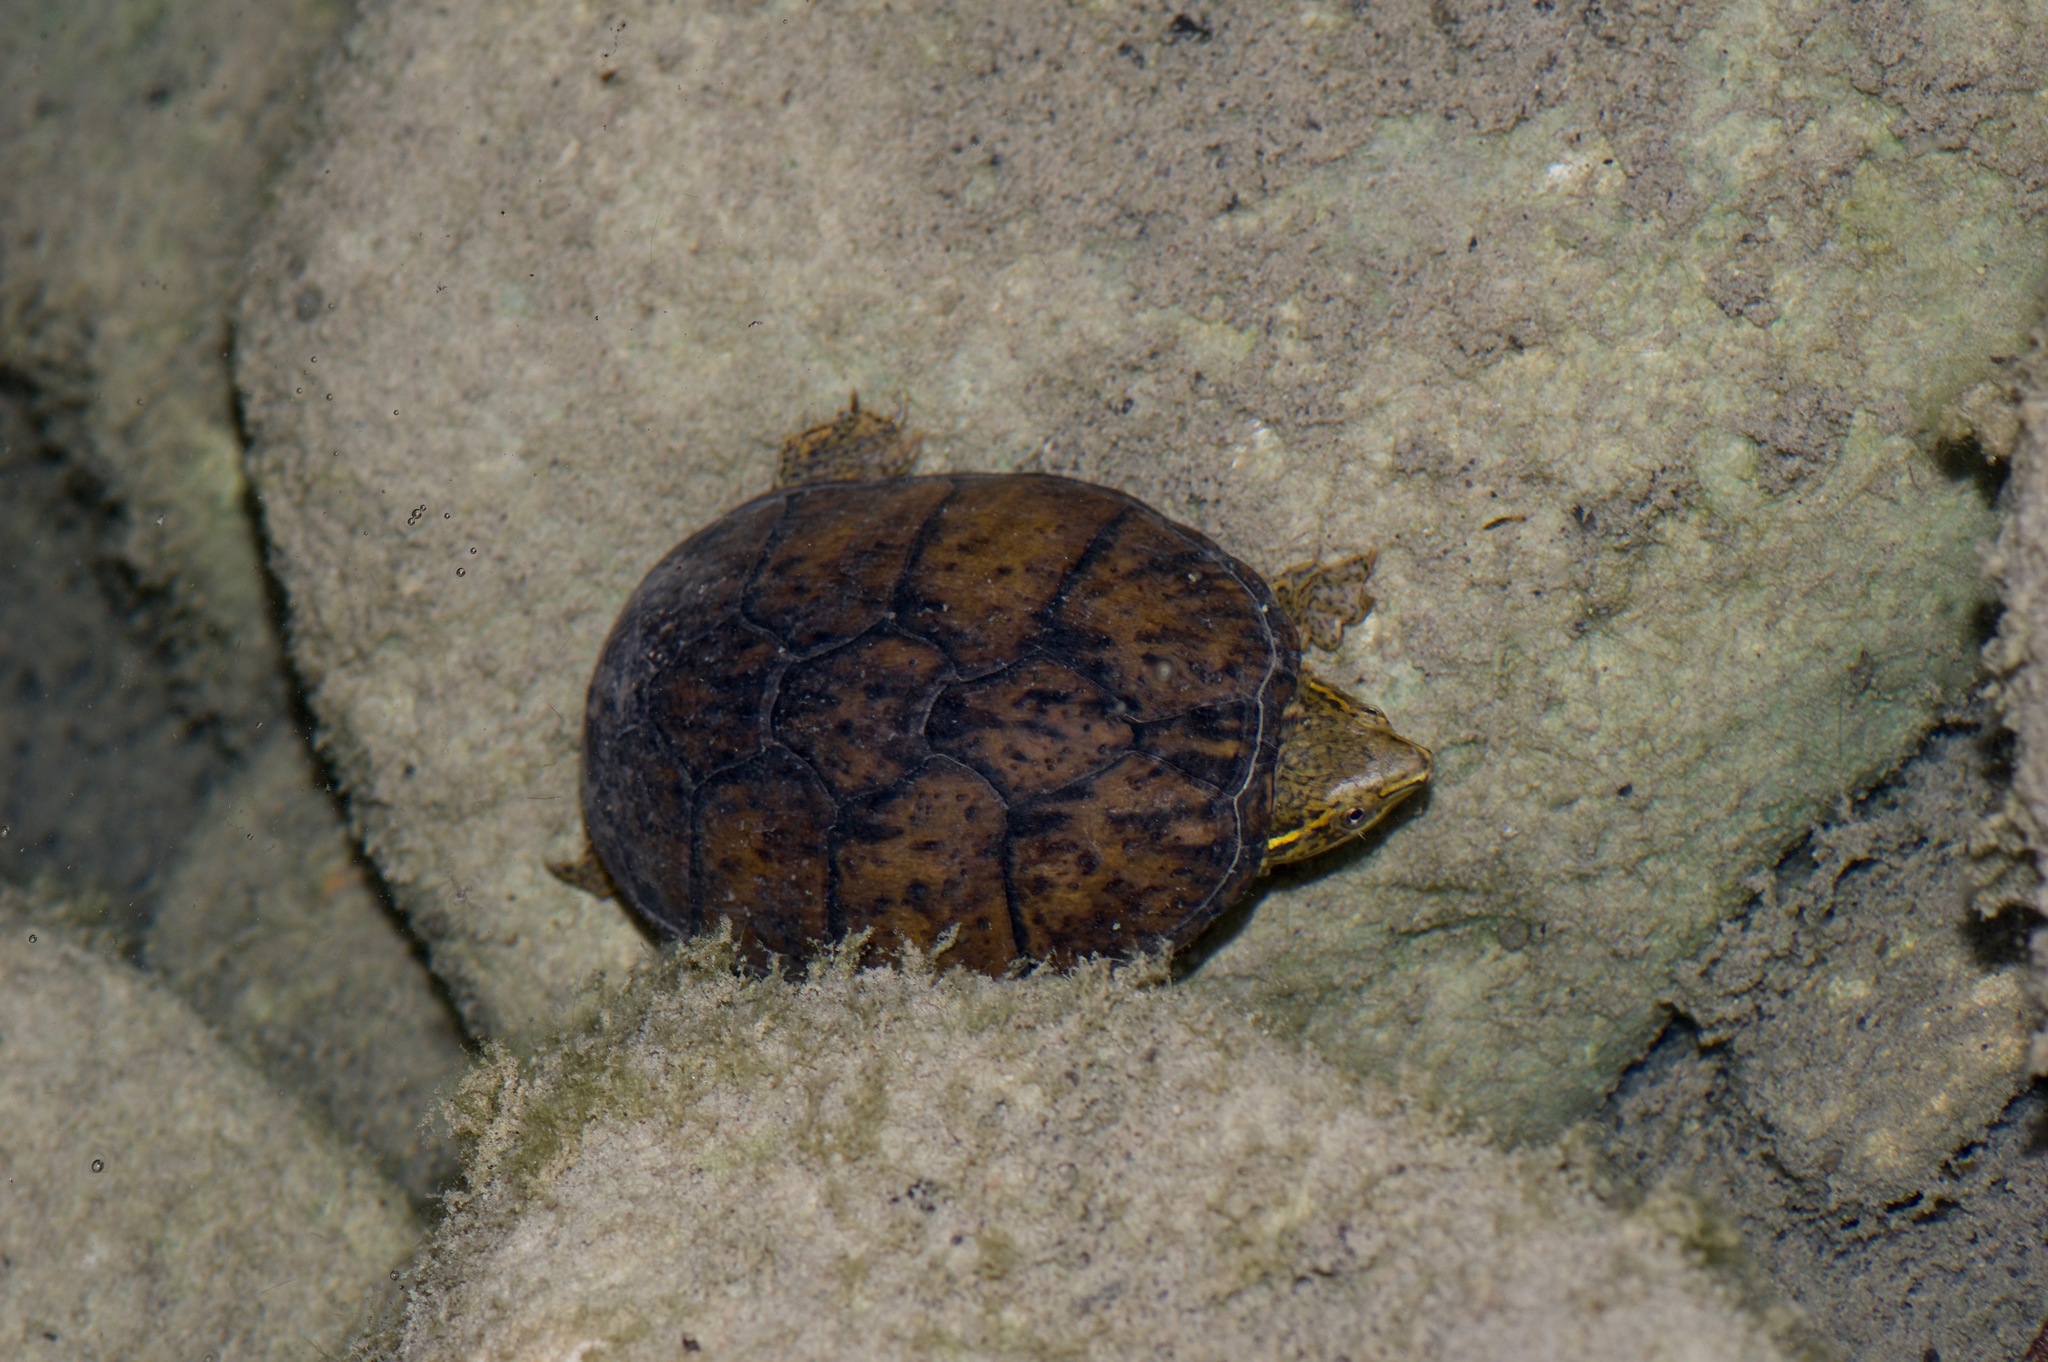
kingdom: Animalia
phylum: Chordata
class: Testudines
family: Kinosternidae
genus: Sternotherus
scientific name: Sternotherus odoratus
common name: Common musk turtle
